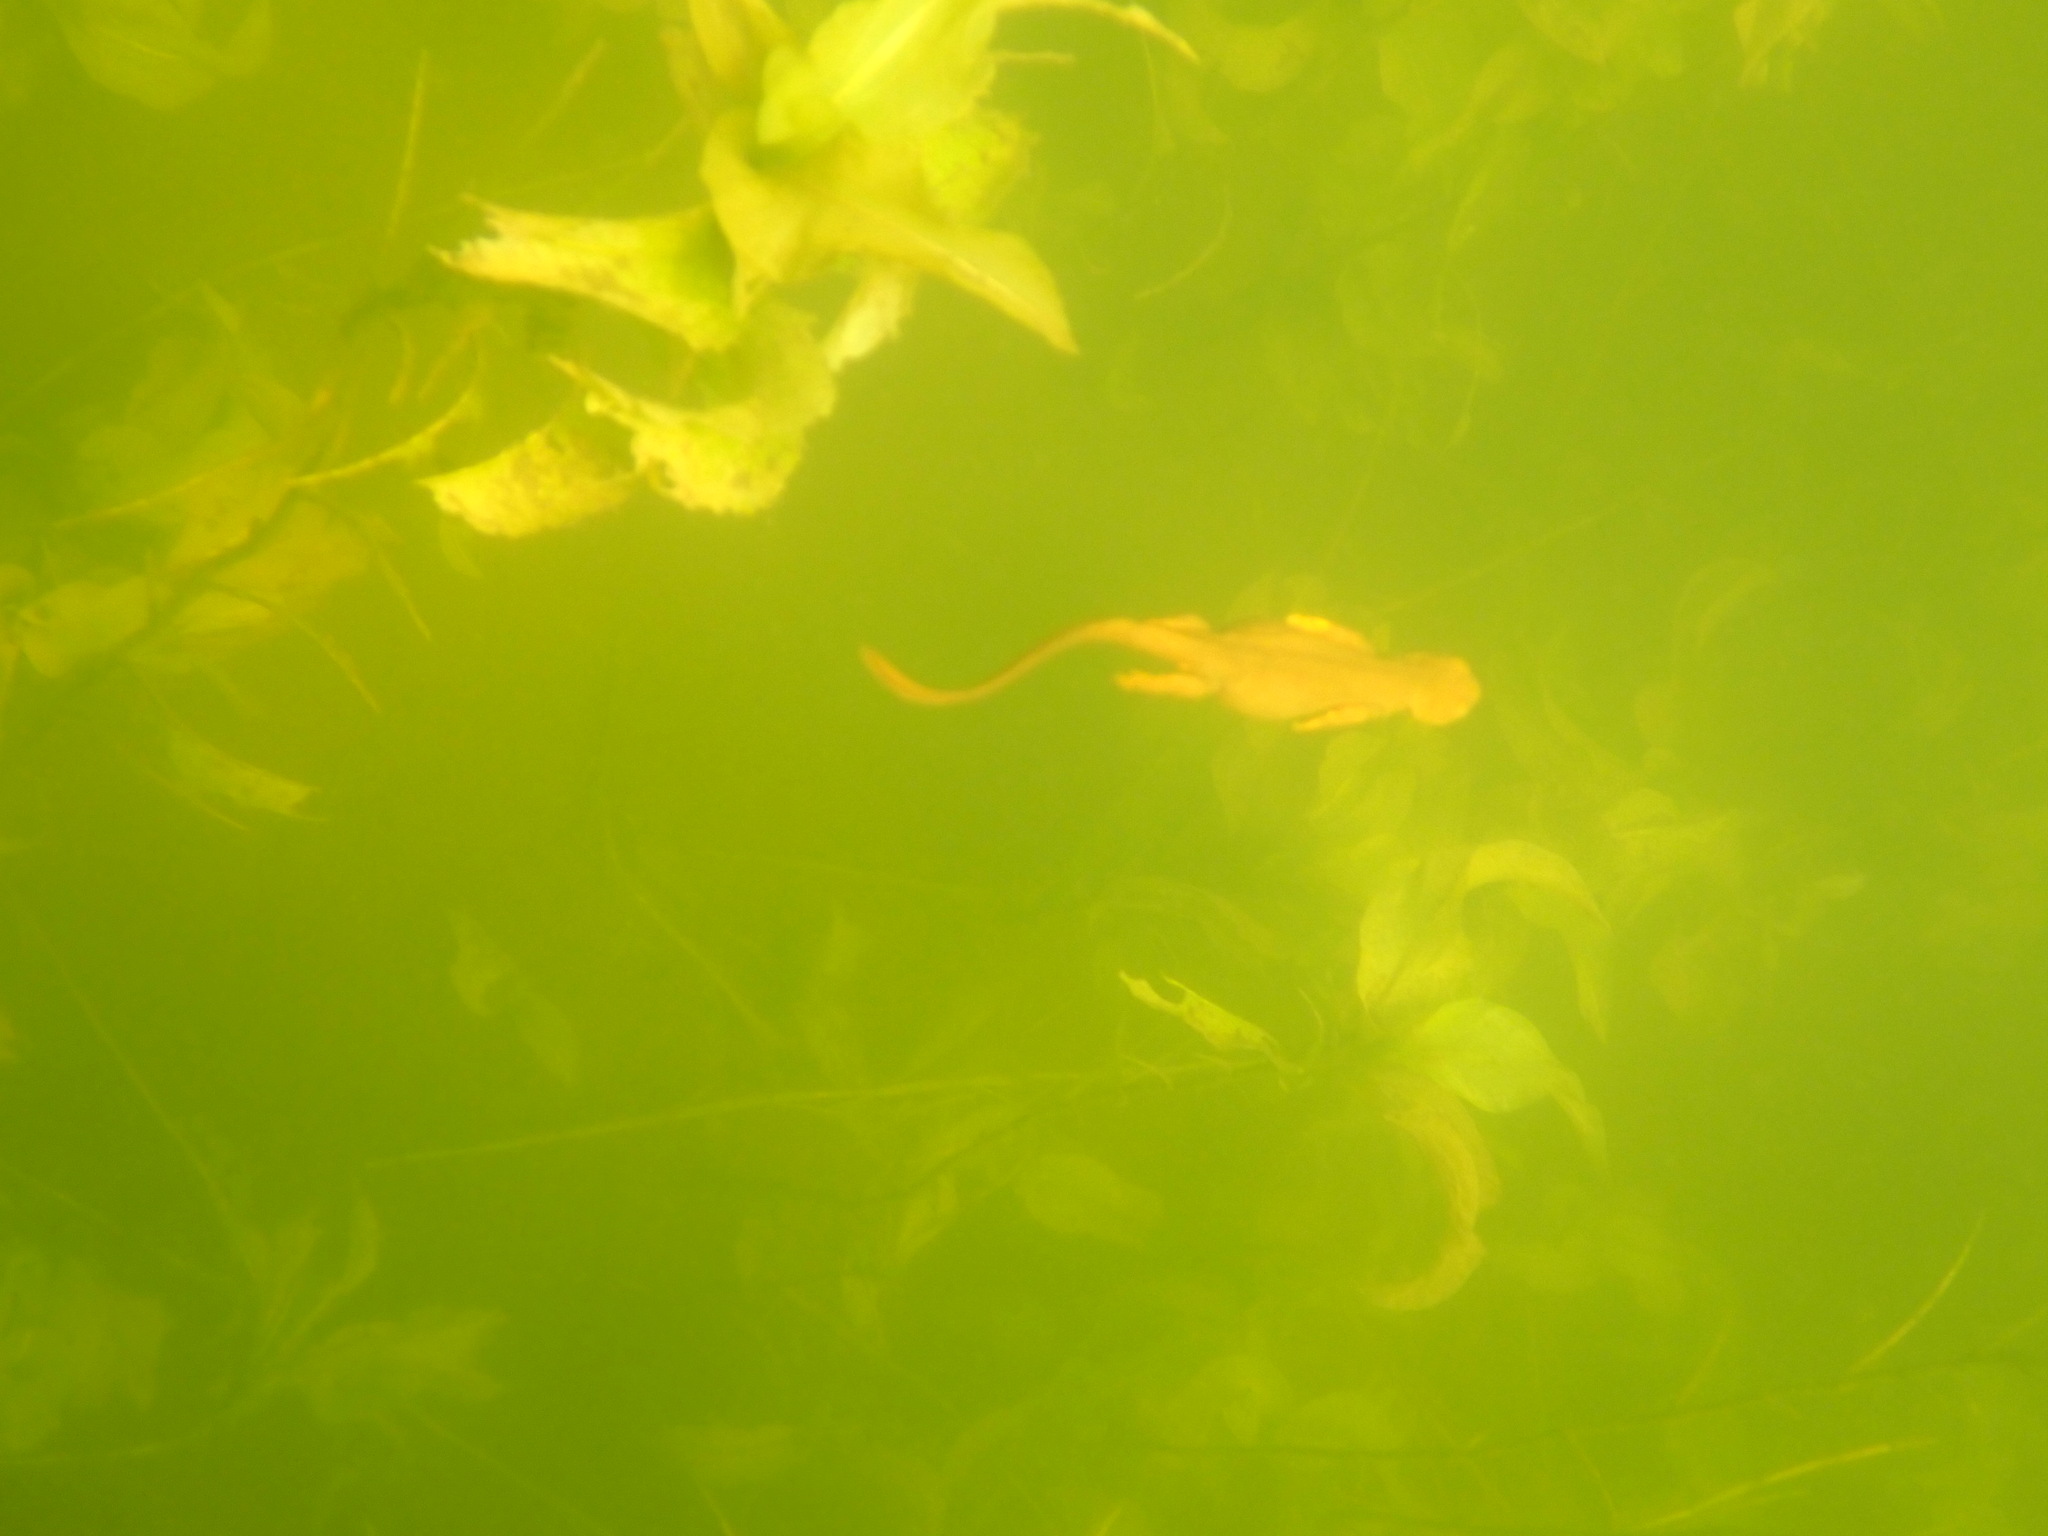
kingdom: Animalia
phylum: Chordata
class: Amphibia
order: Caudata
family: Salamandridae
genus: Taricha
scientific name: Taricha granulosa
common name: Roughskin newt
